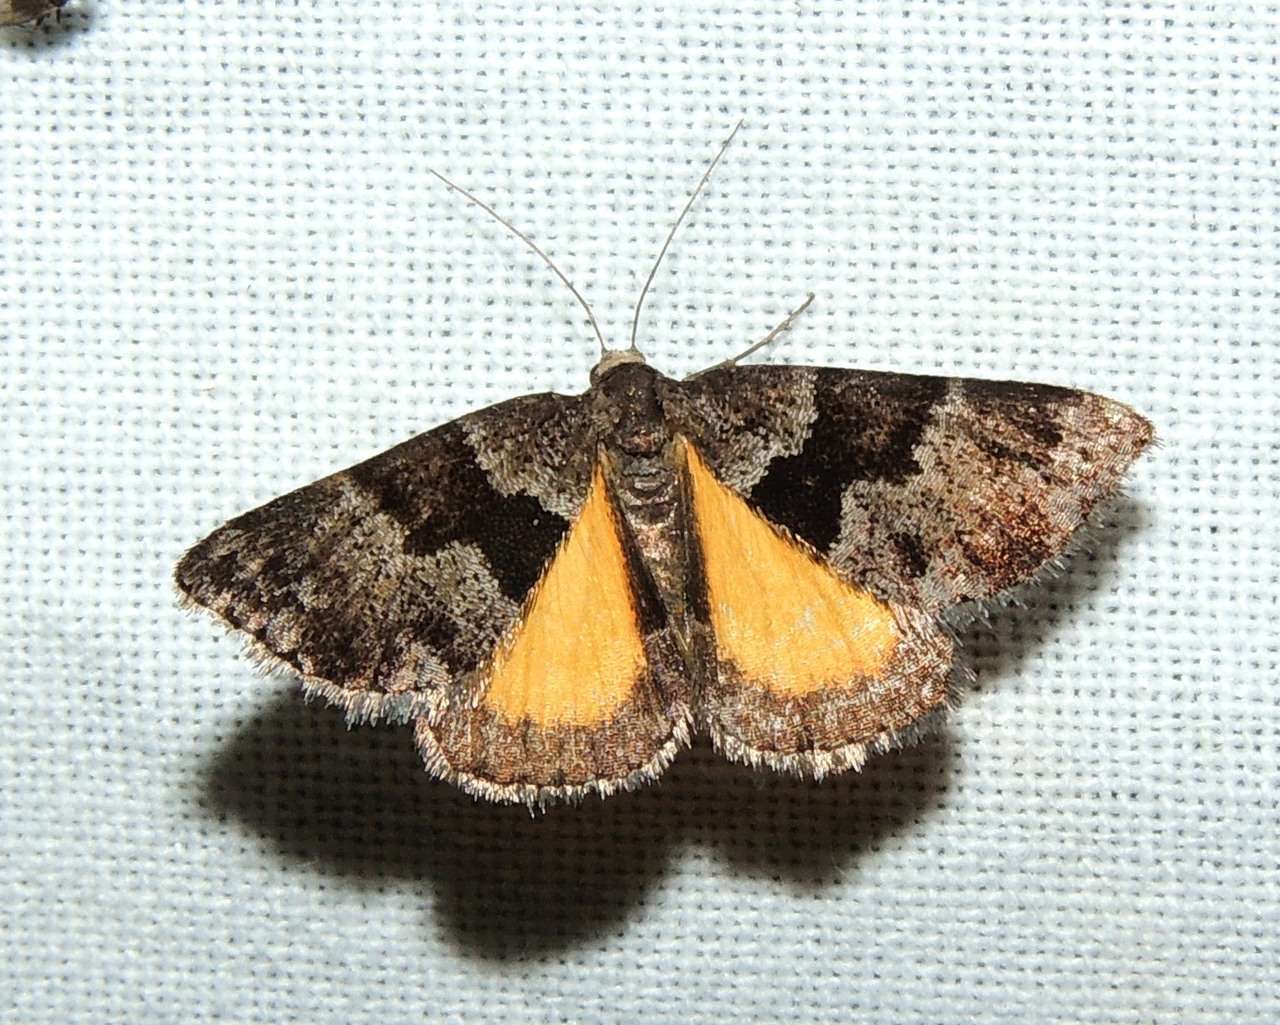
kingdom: Animalia
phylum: Arthropoda
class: Insecta
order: Lepidoptera
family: Geometridae
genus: Dichromodes
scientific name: Dichromodes ainaria
